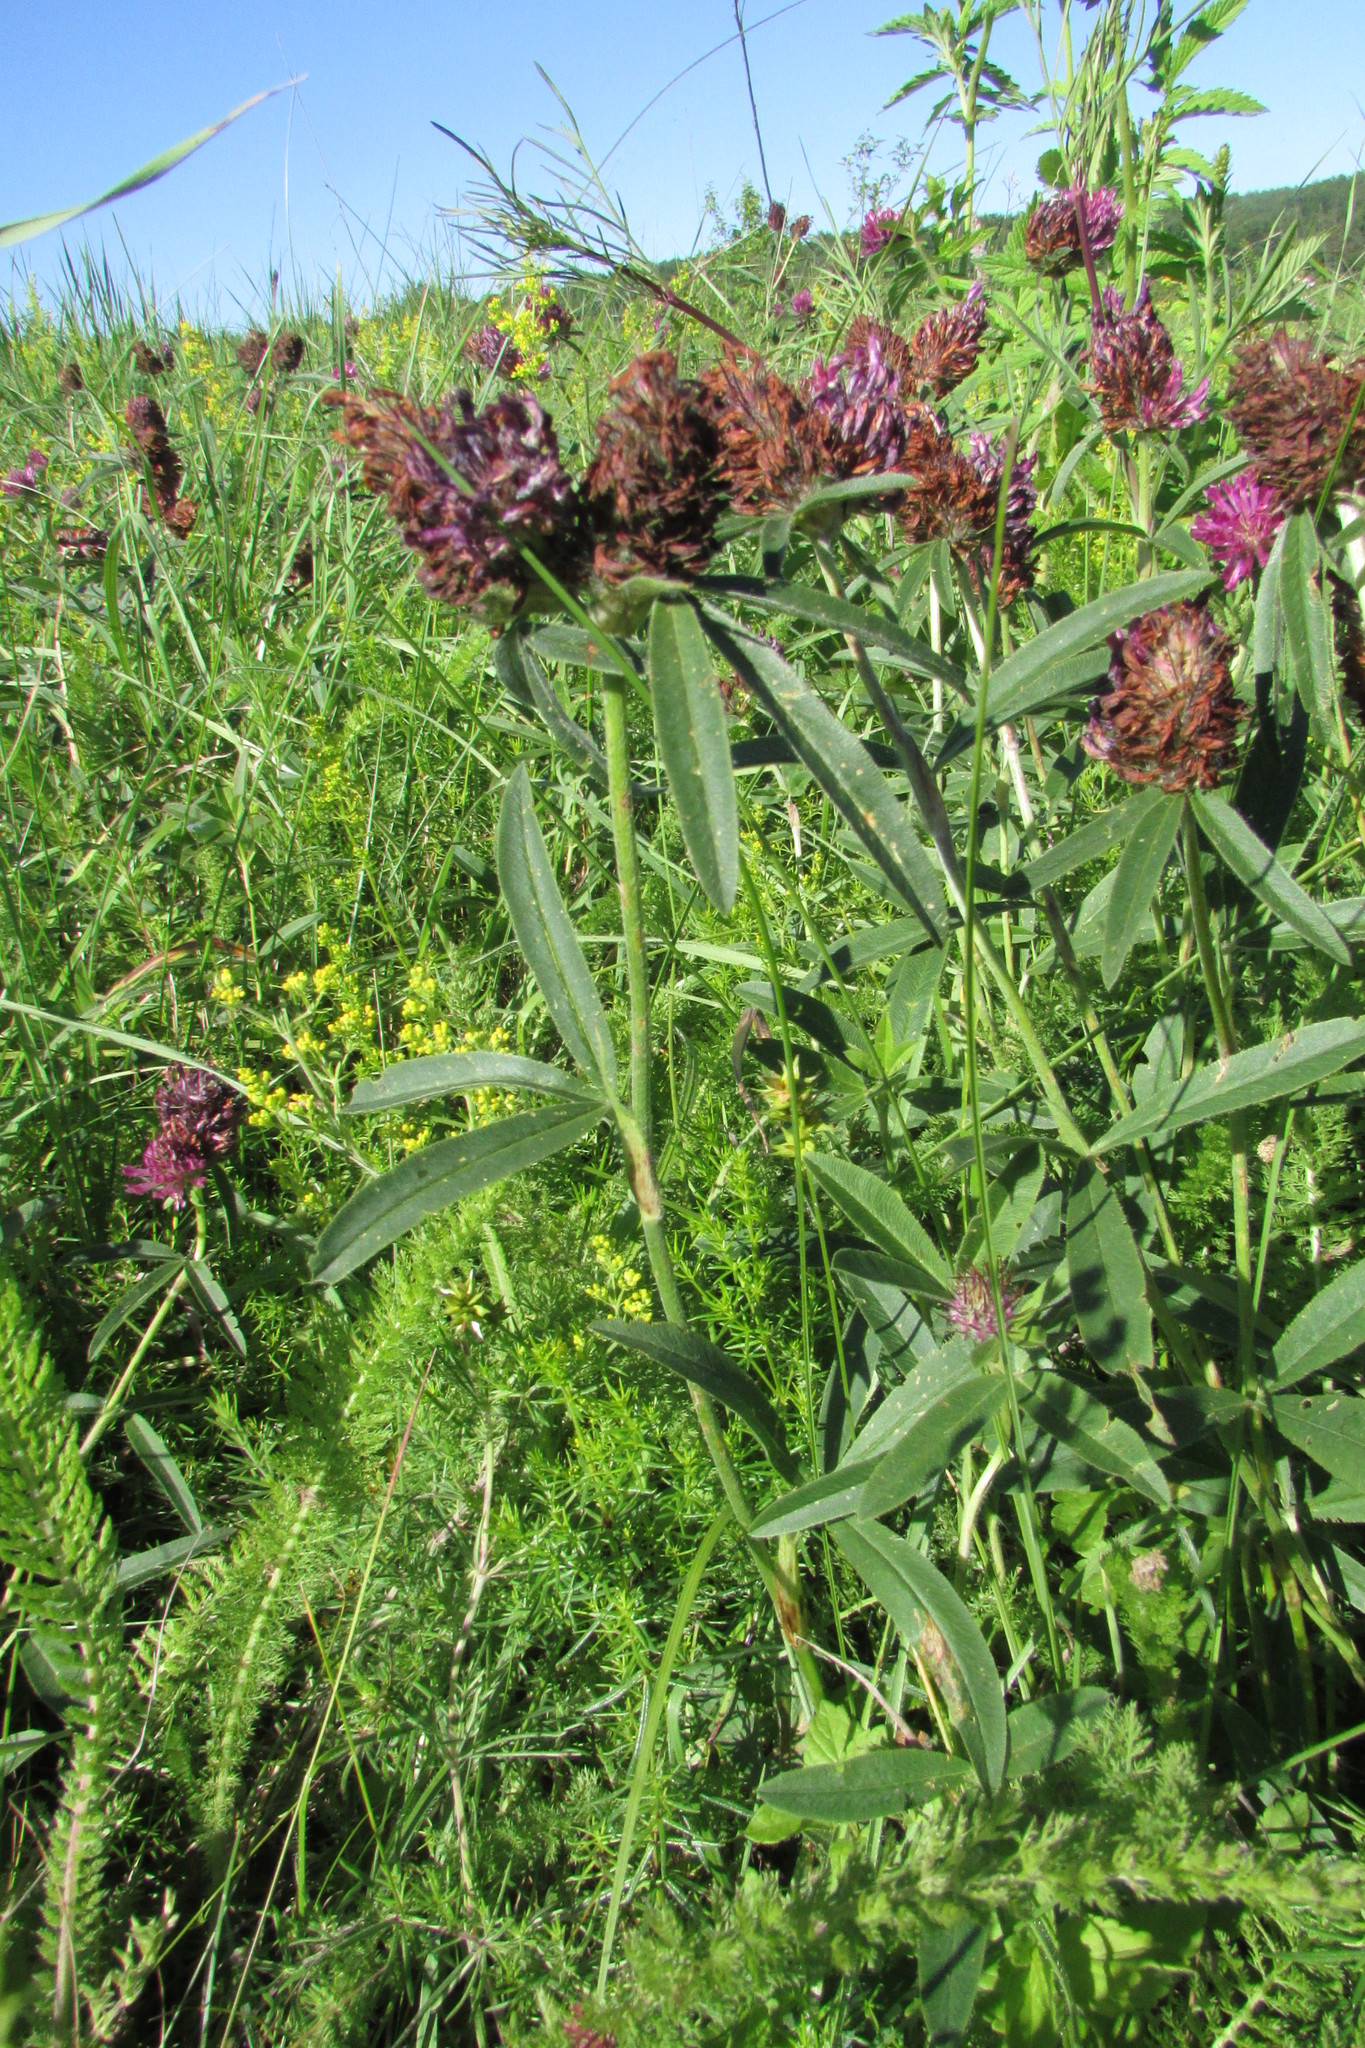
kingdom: Plantae
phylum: Tracheophyta
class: Magnoliopsida
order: Fabales
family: Fabaceae
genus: Trifolium
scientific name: Trifolium alpestre
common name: Owl-head clover
